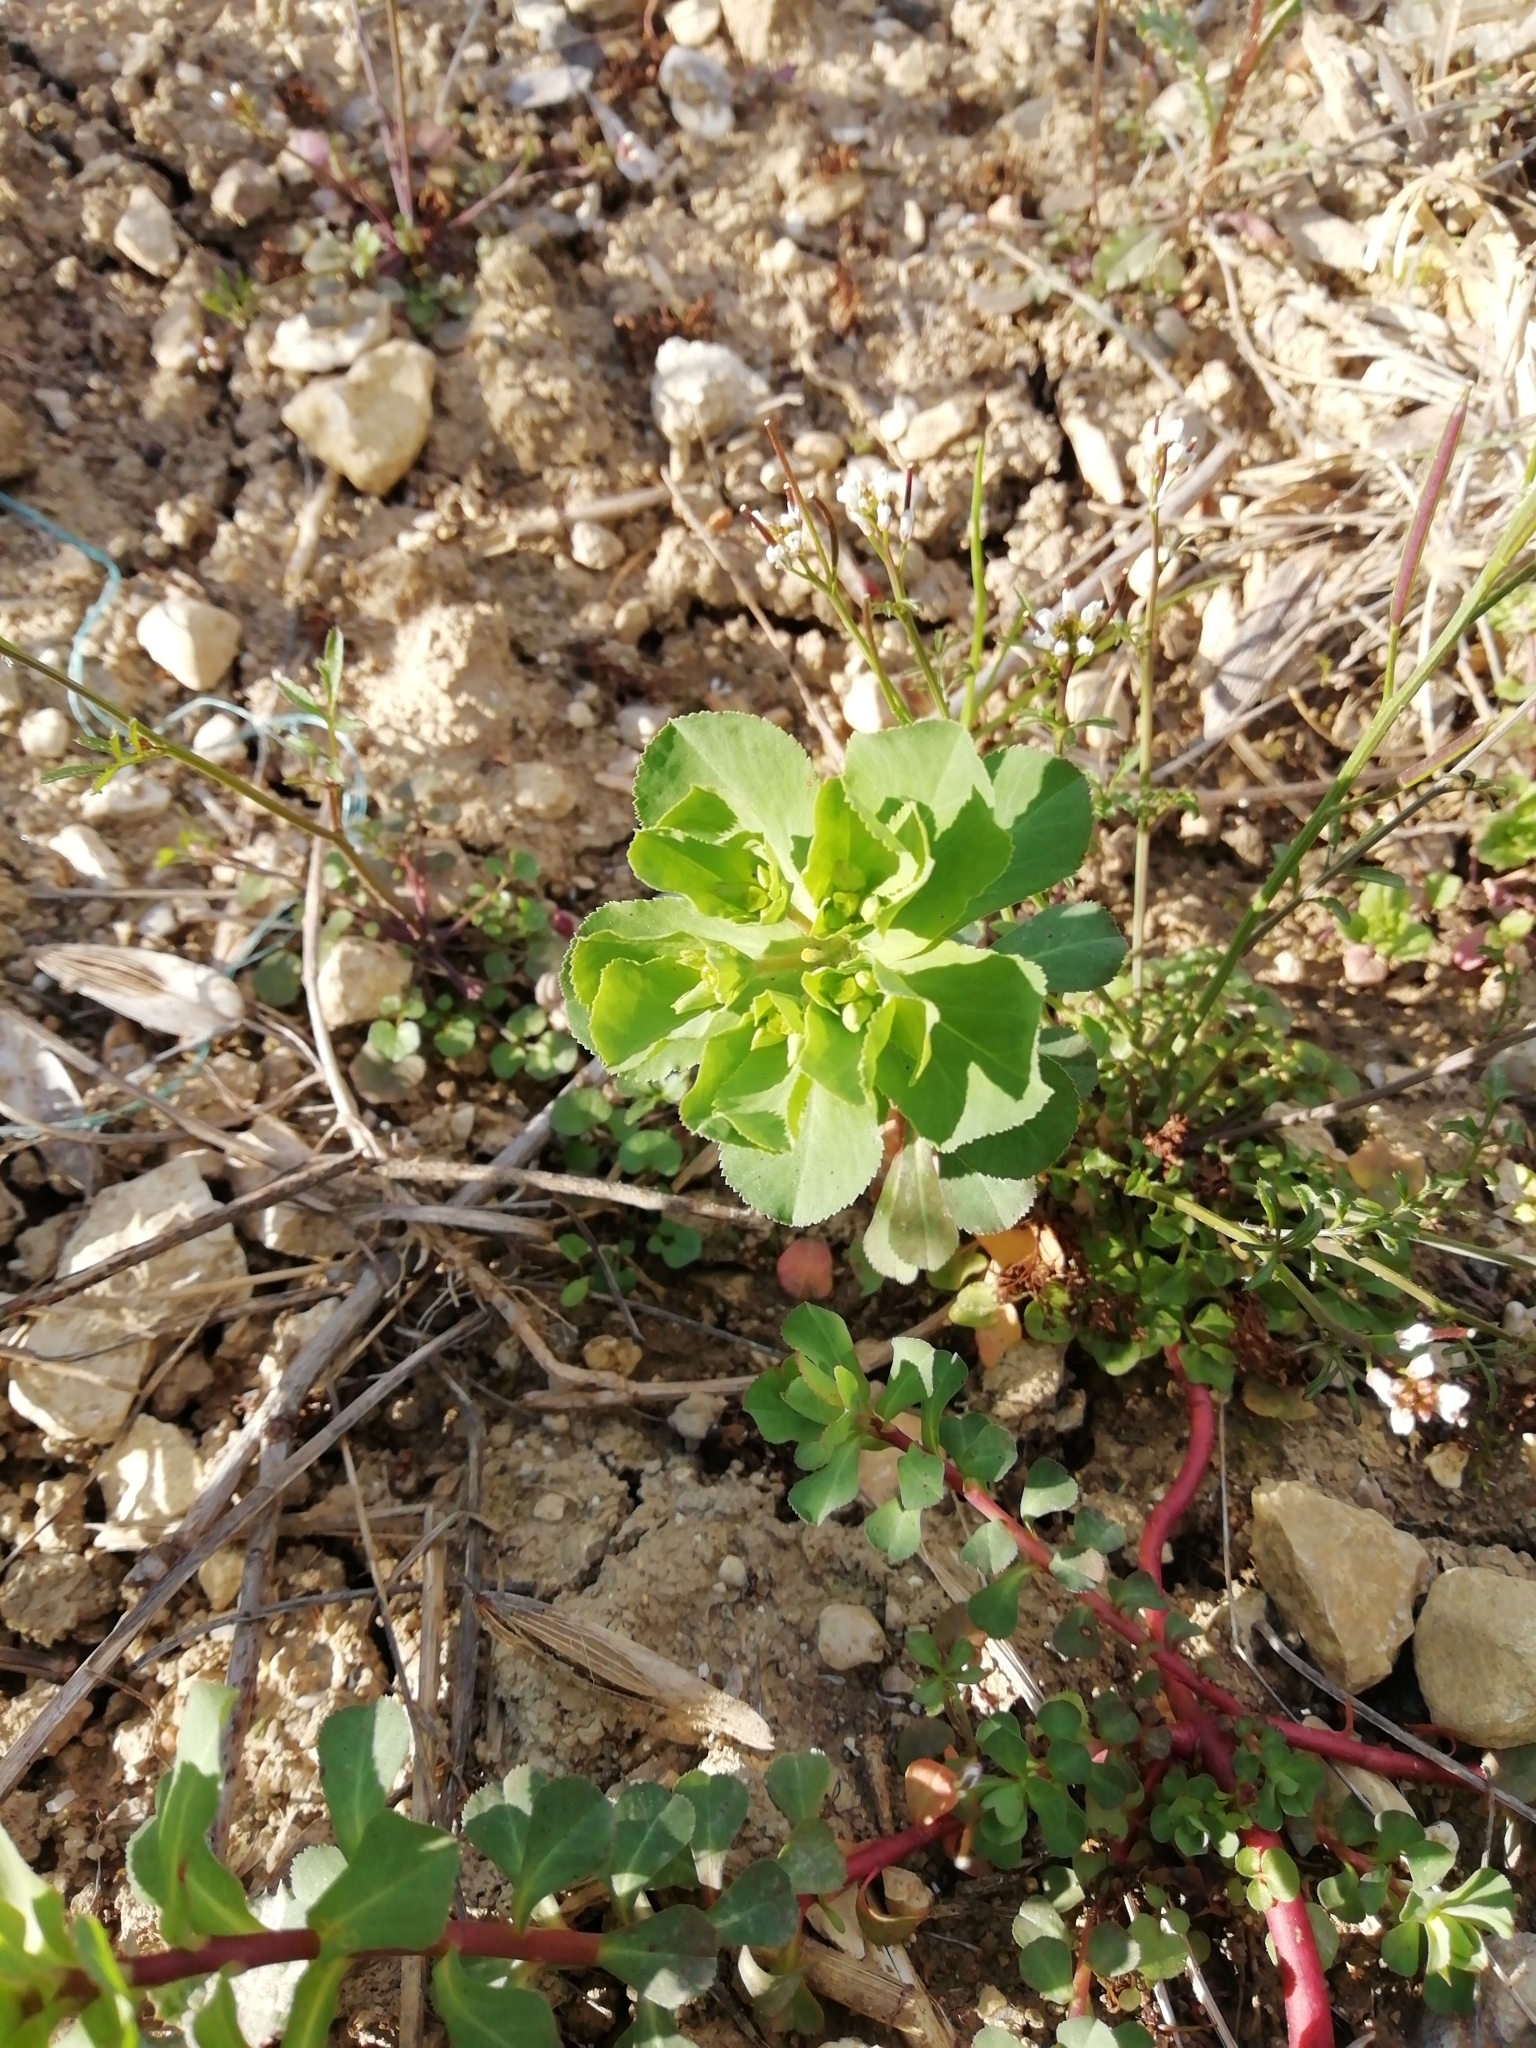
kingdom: Plantae
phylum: Tracheophyta
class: Magnoliopsida
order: Malpighiales
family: Euphorbiaceae
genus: Euphorbia
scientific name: Euphorbia helioscopia
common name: Sun spurge
